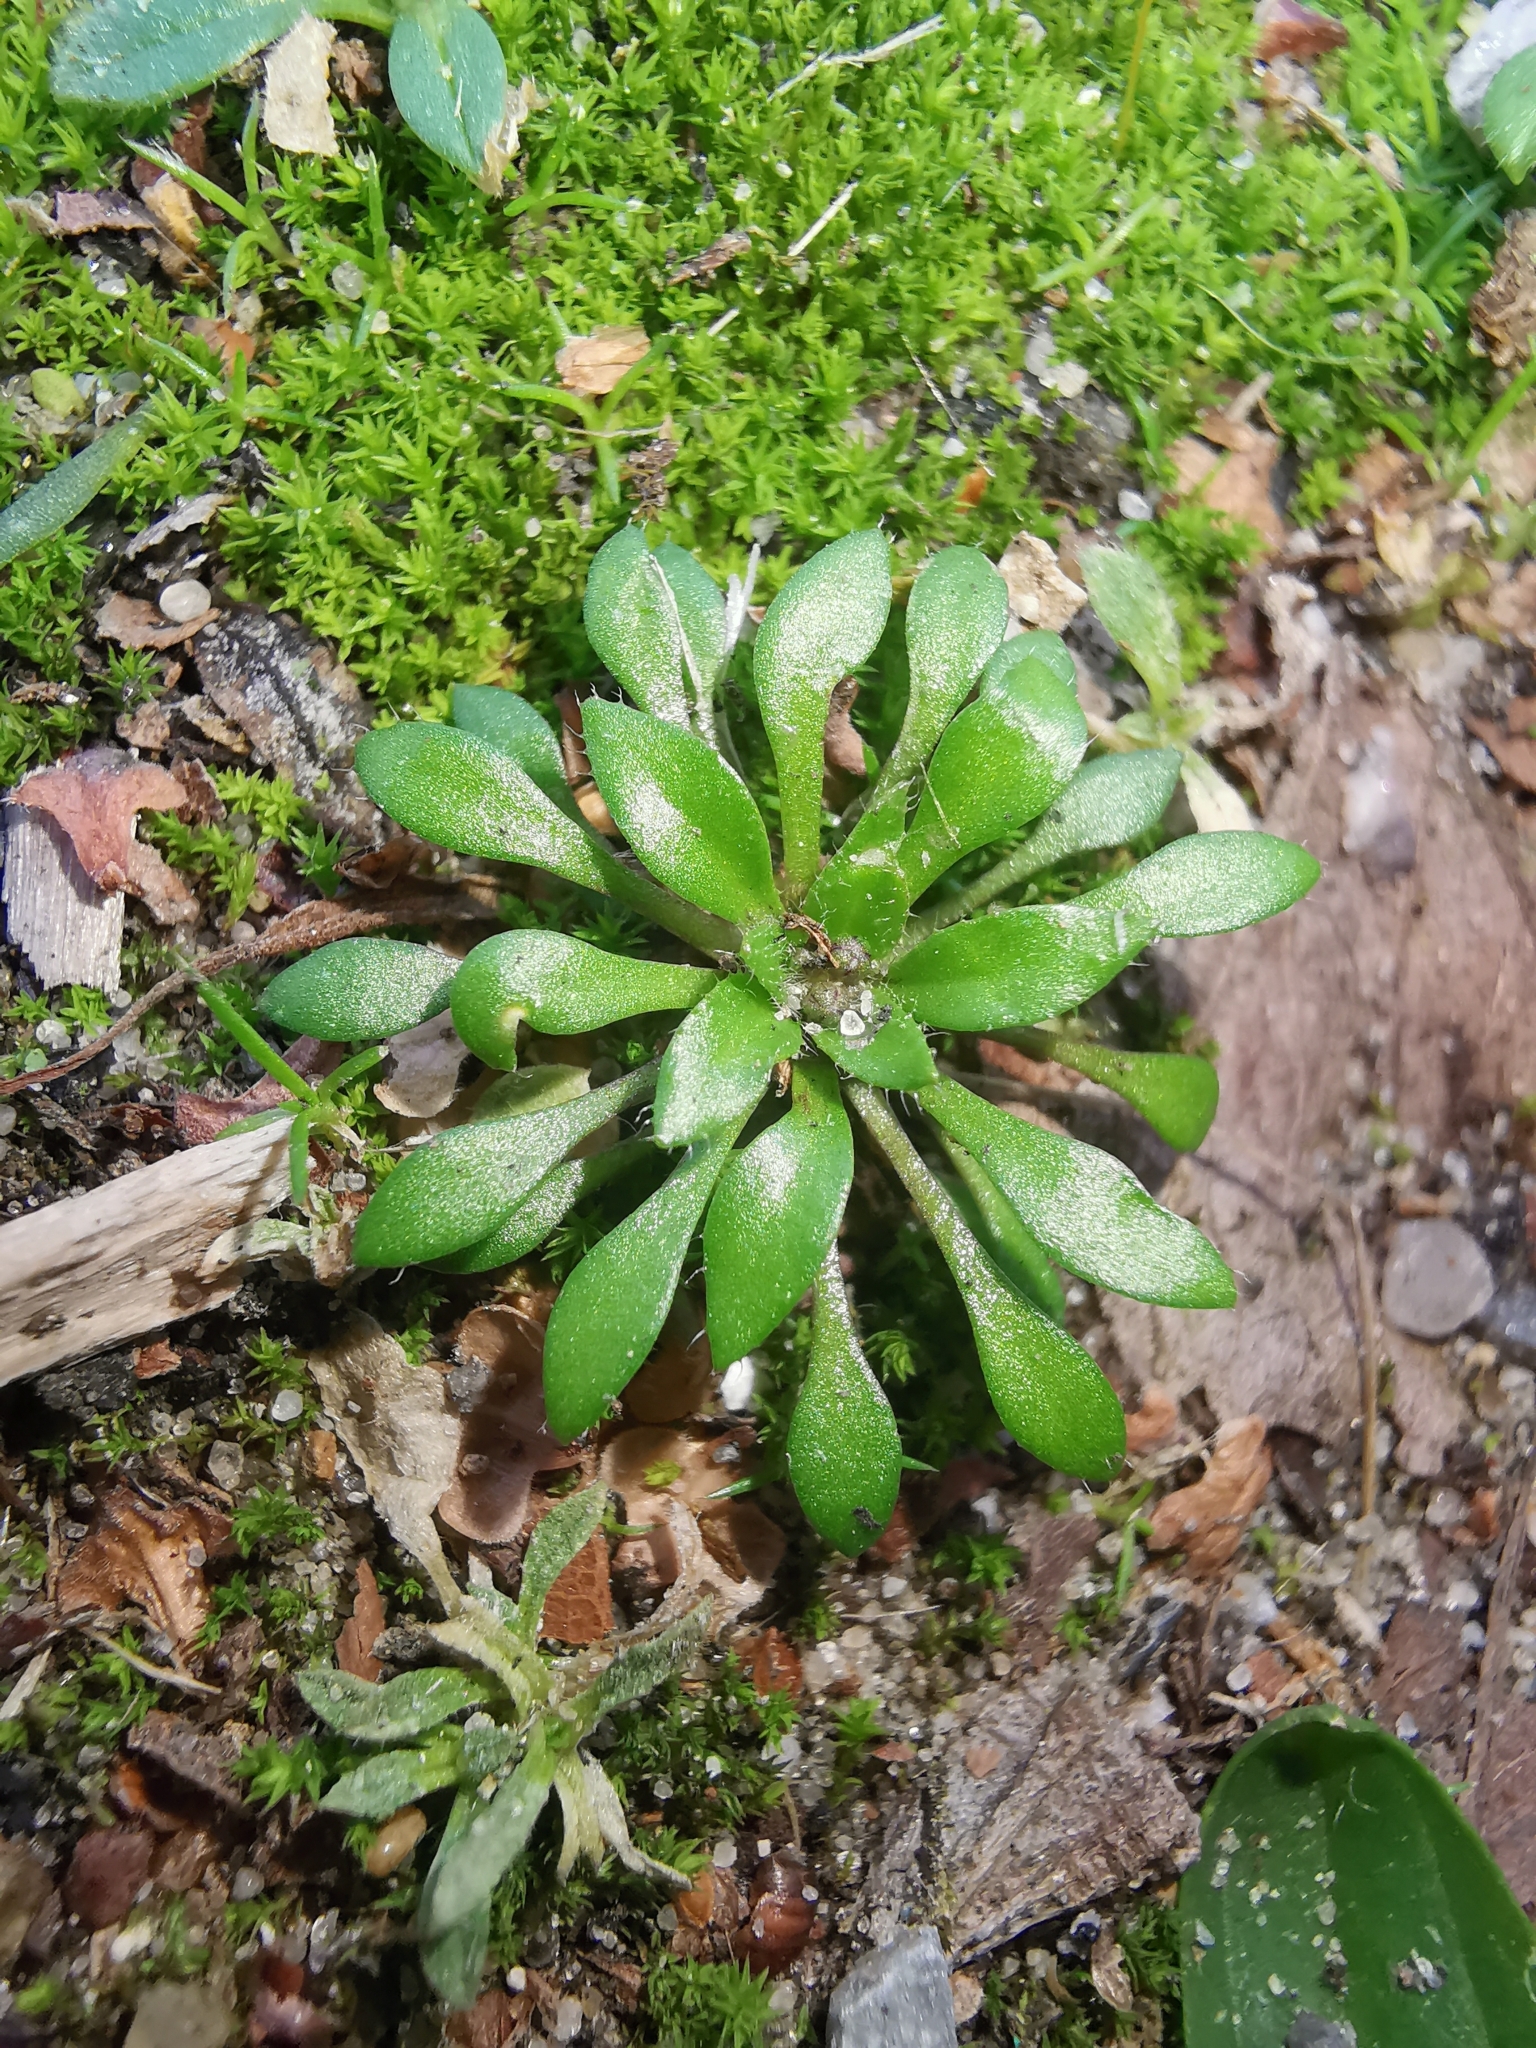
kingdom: Plantae
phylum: Tracheophyta
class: Magnoliopsida
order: Brassicales
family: Brassicaceae
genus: Draba
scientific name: Draba verna
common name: Spring draba
